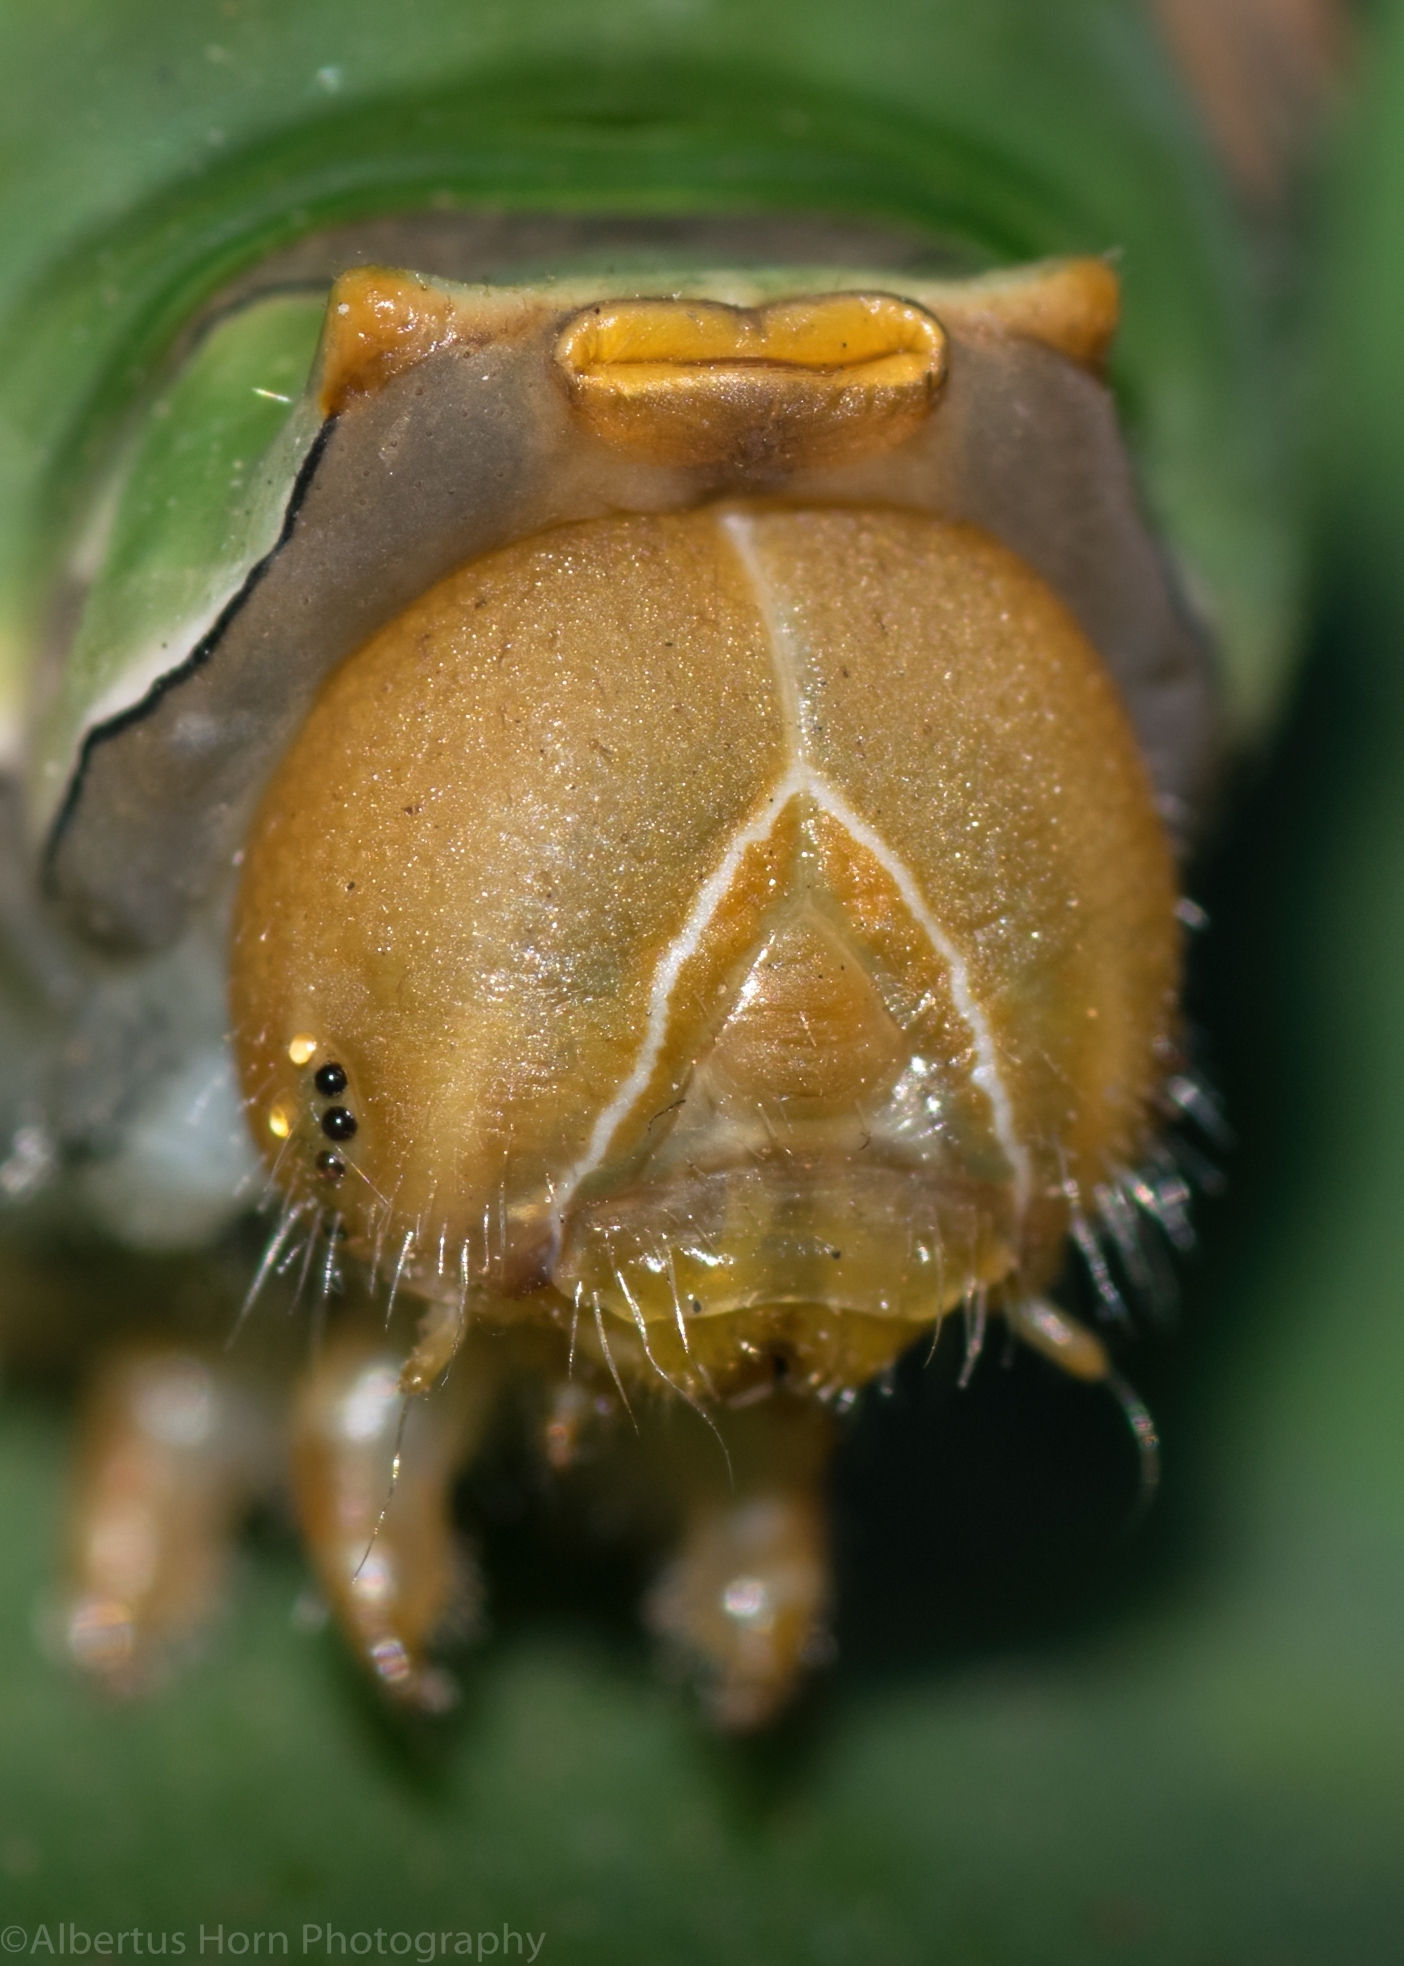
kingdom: Animalia
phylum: Arthropoda
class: Insecta
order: Lepidoptera
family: Papilionidae
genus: Papilio
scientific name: Papilio demodocus
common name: Christmas butterfly
